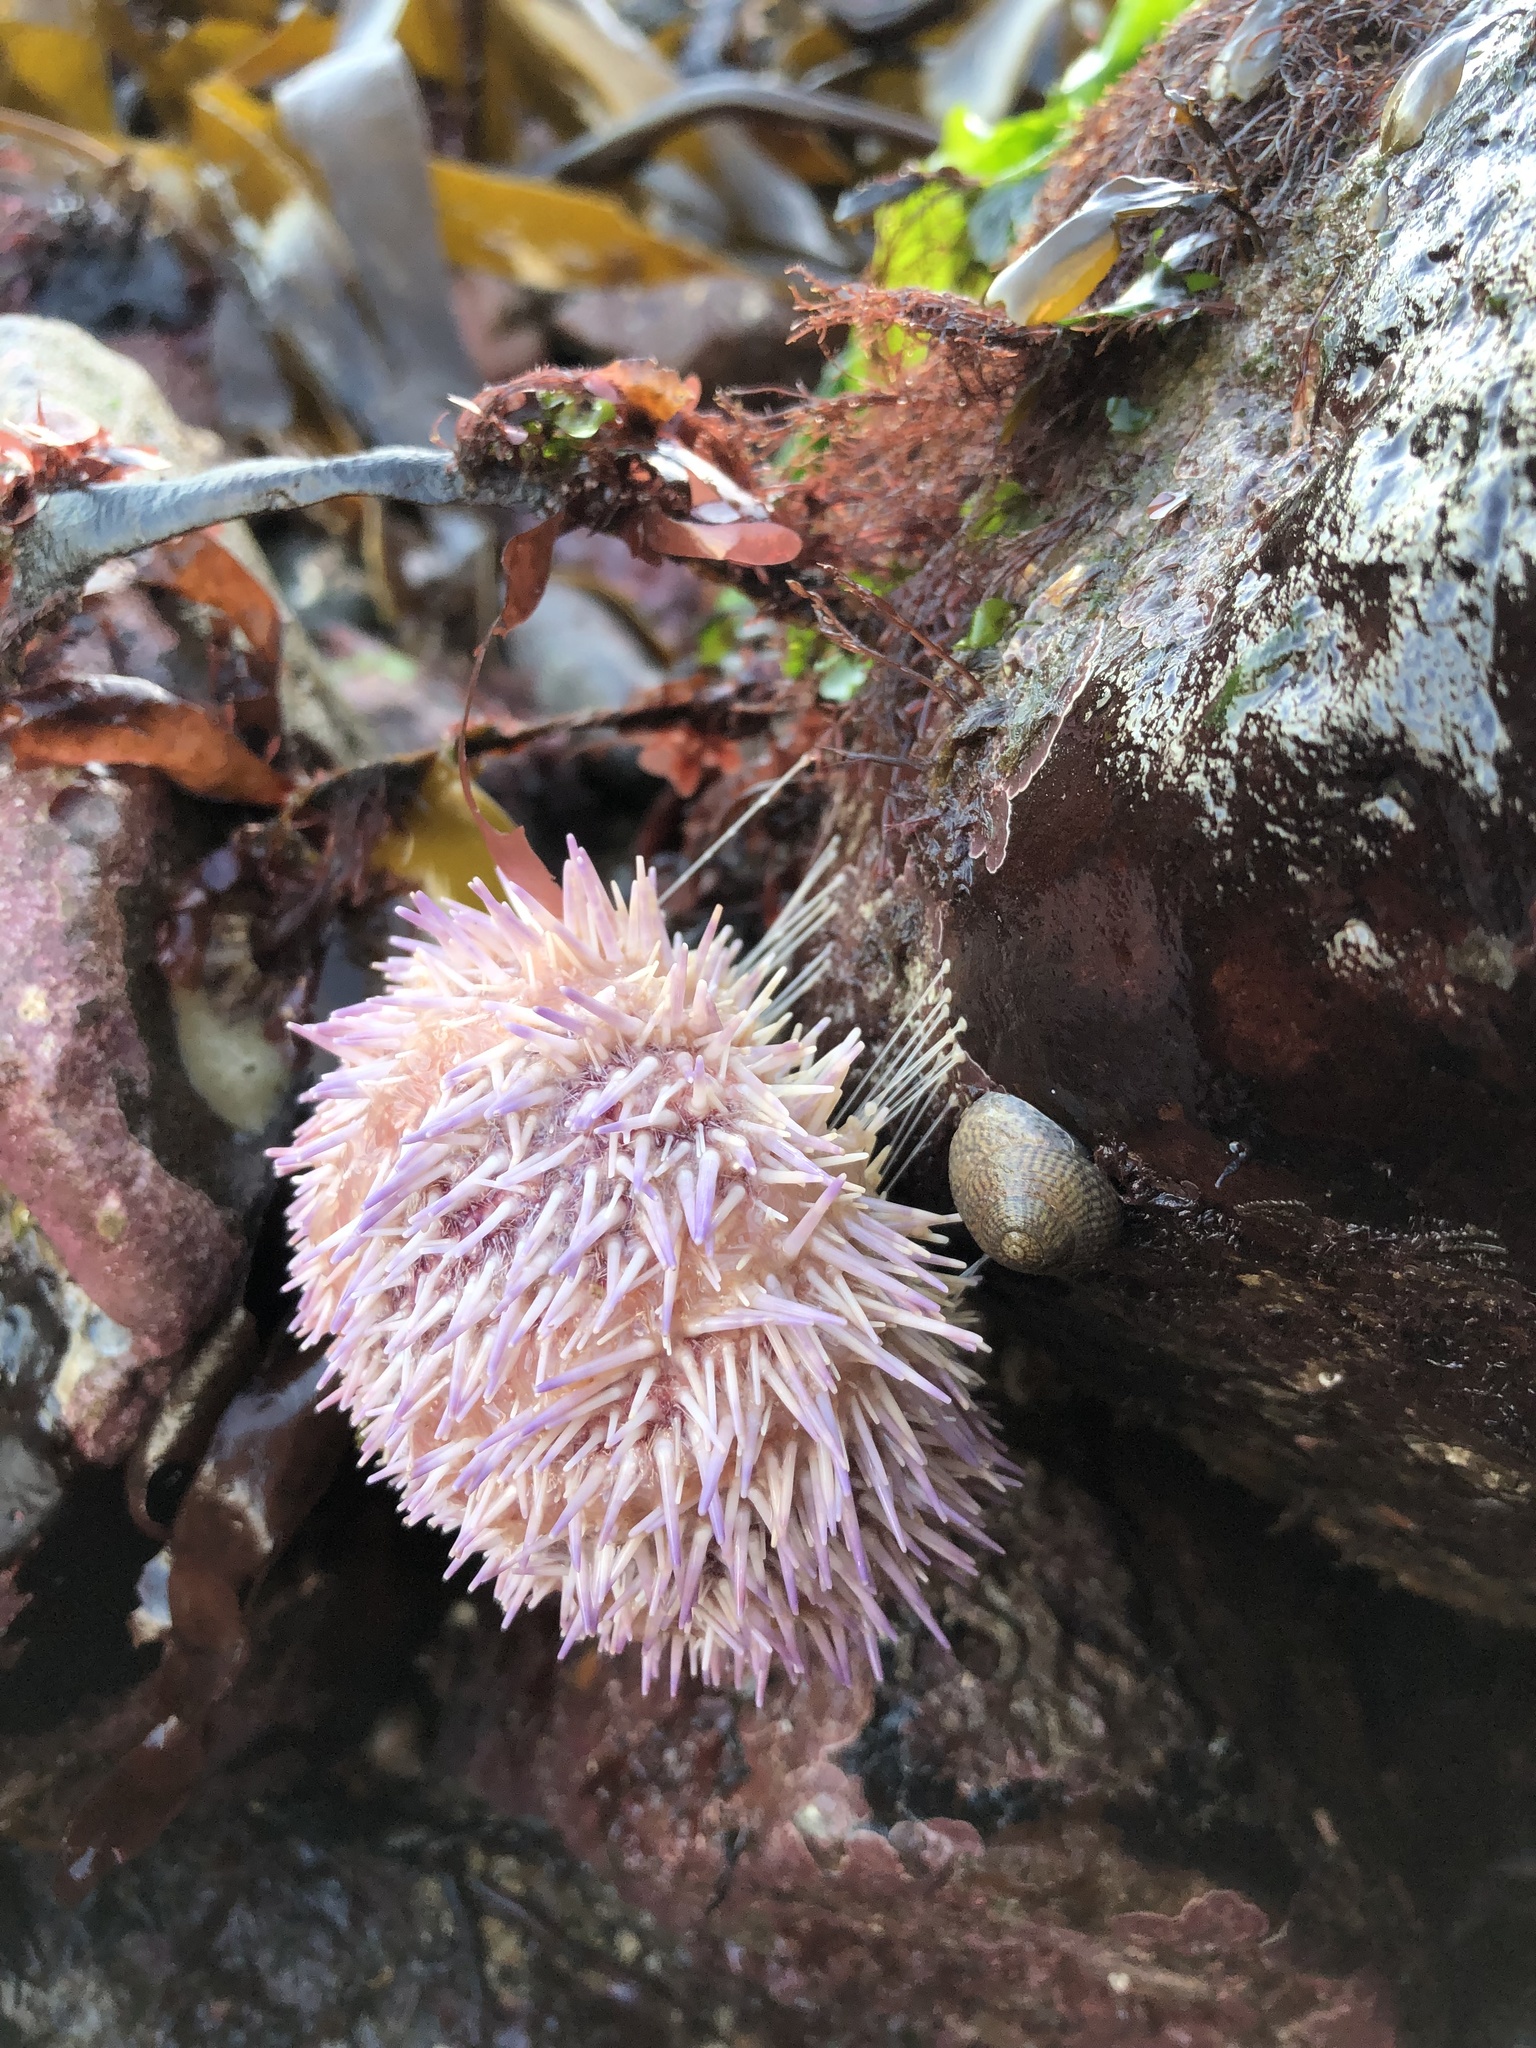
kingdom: Animalia
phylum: Echinodermata
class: Echinoidea
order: Camarodonta
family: Echinidae
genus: Echinus
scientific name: Echinus esculentus
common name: Edible sea urchin
